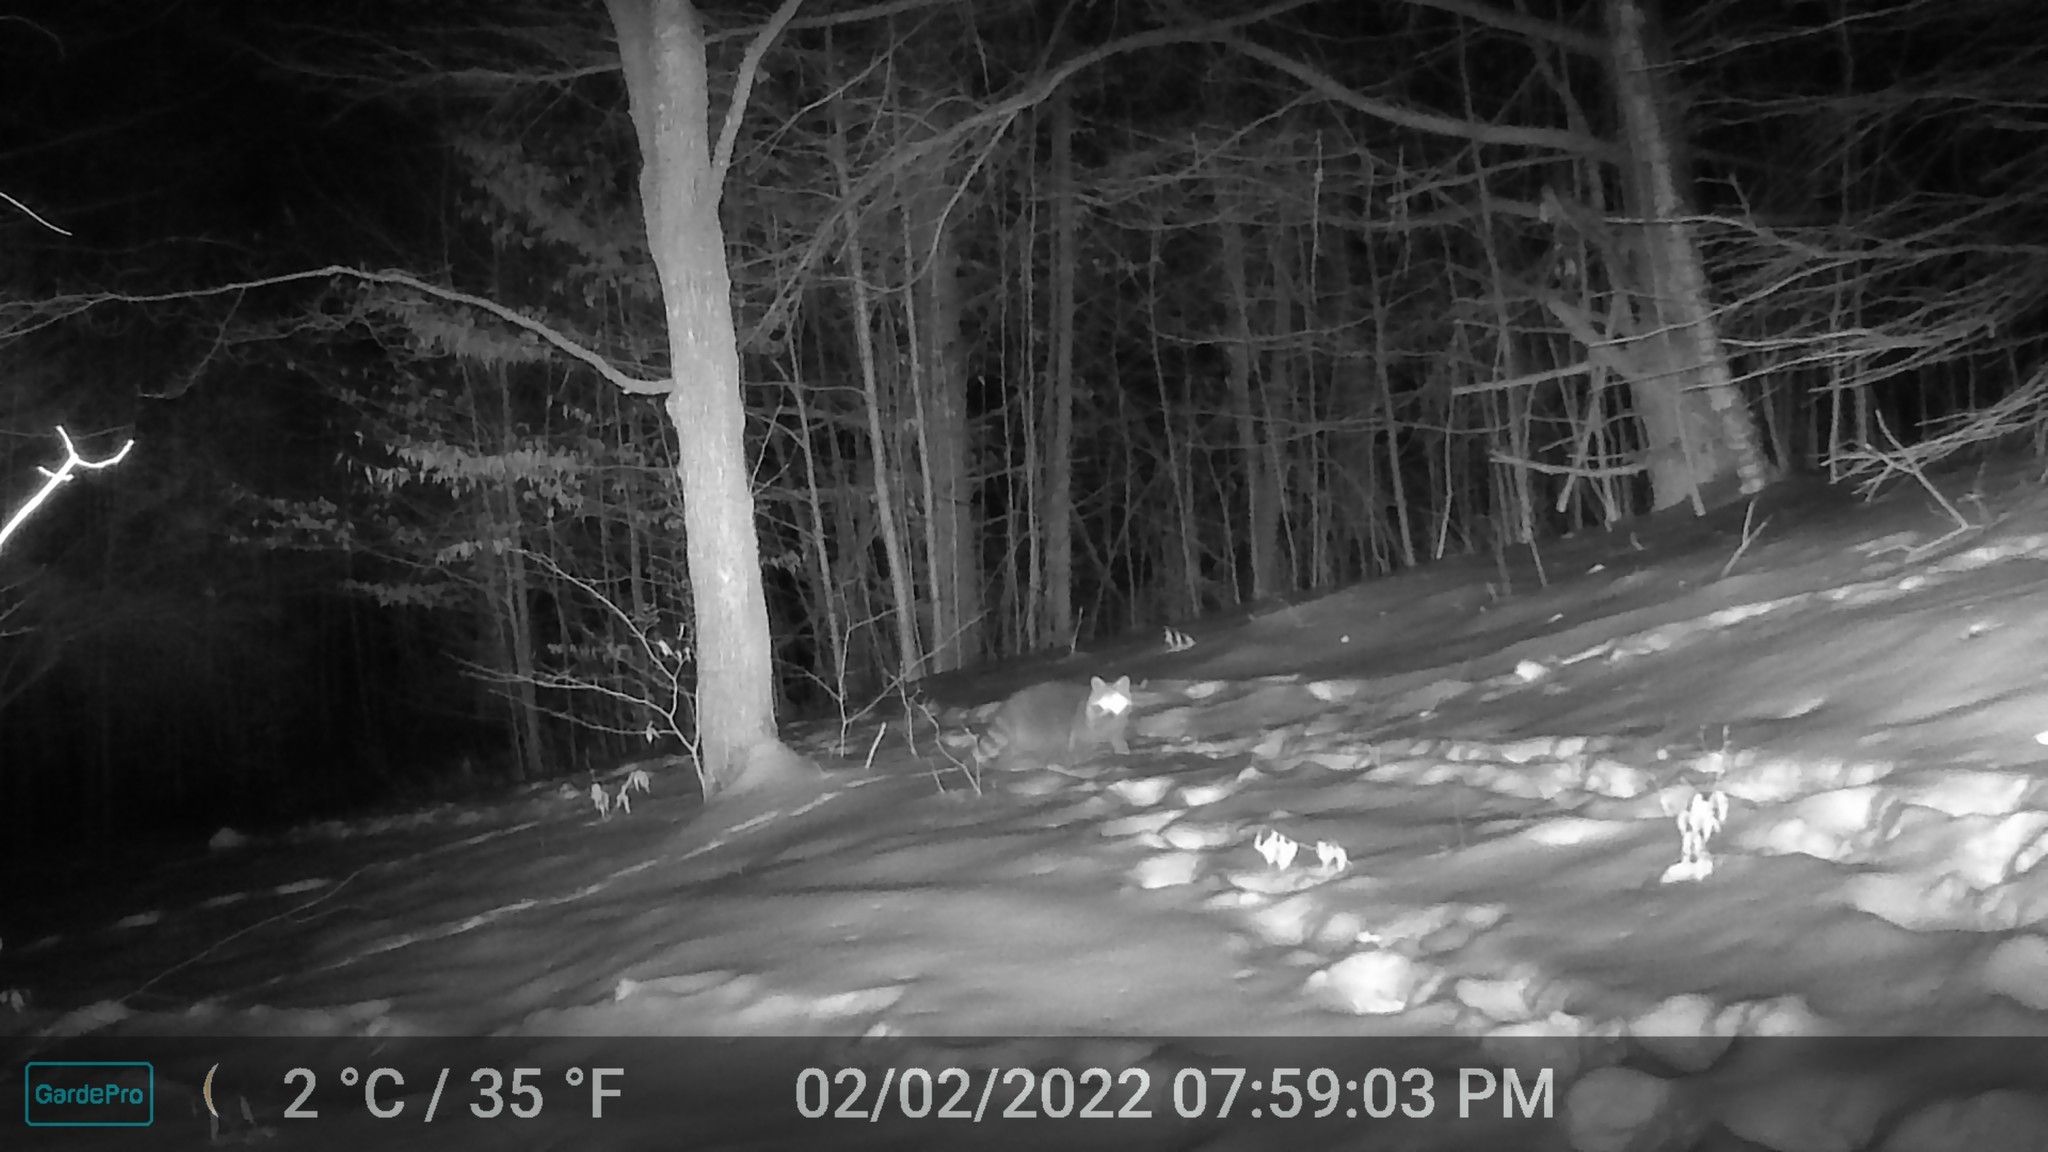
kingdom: Animalia
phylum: Chordata
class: Mammalia
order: Carnivora
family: Procyonidae
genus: Procyon
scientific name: Procyon lotor
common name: Raccoon
